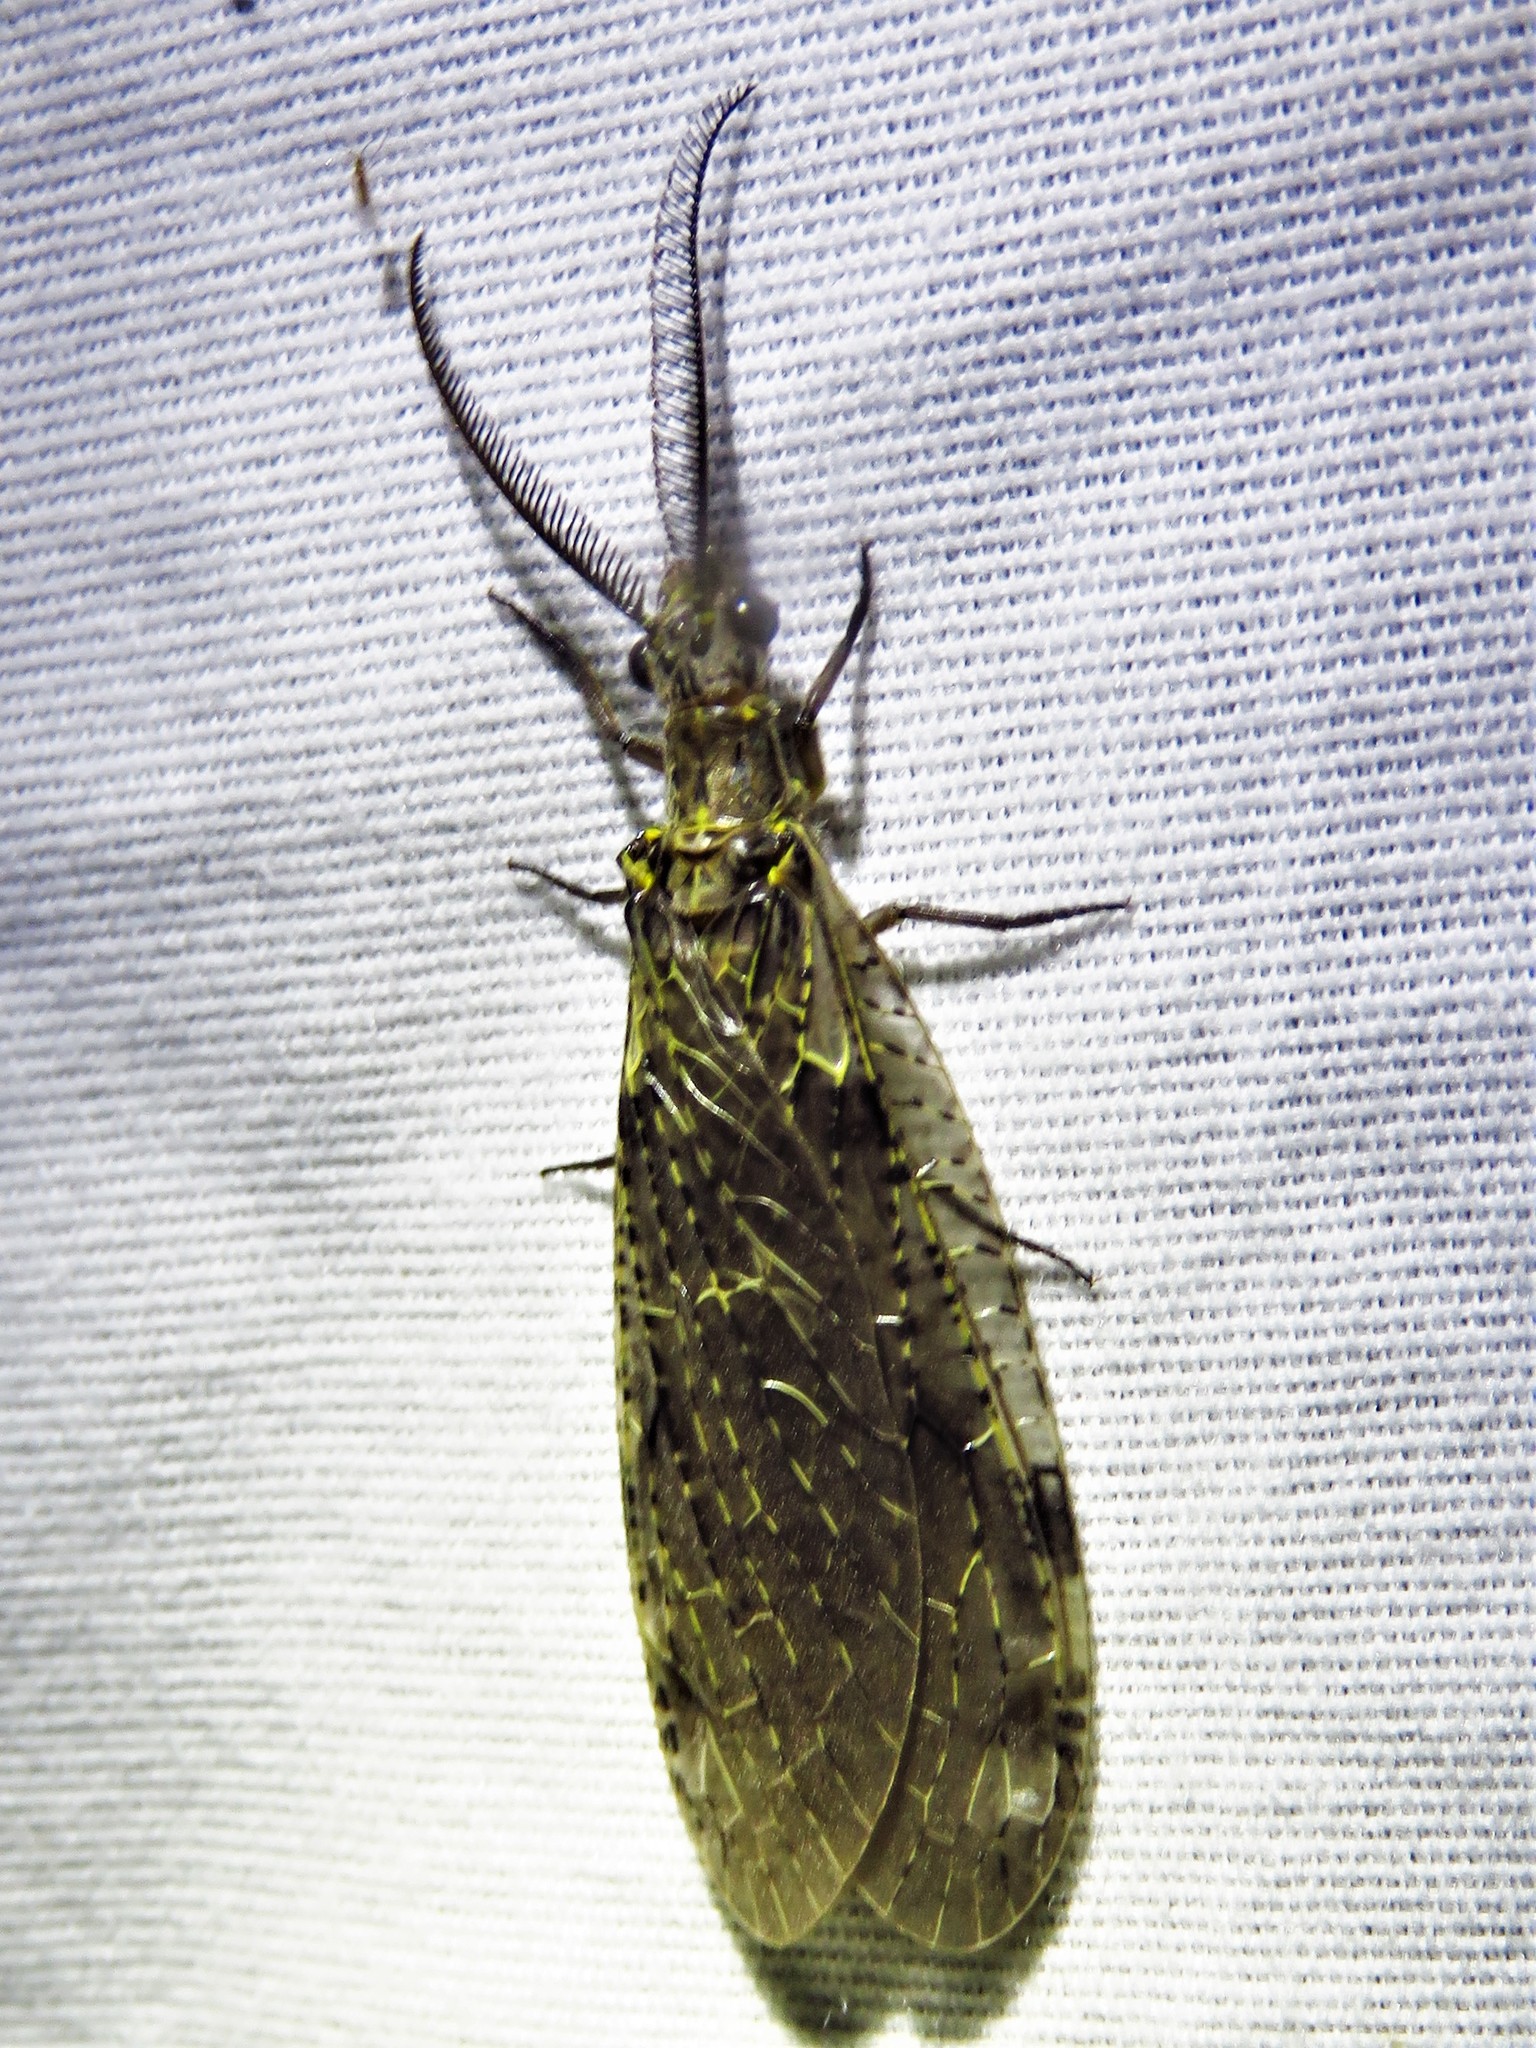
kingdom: Animalia
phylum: Arthropoda
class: Insecta
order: Megaloptera
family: Corydalidae
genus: Chauliodes
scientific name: Chauliodes rastricornis
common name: Spring fishfly
